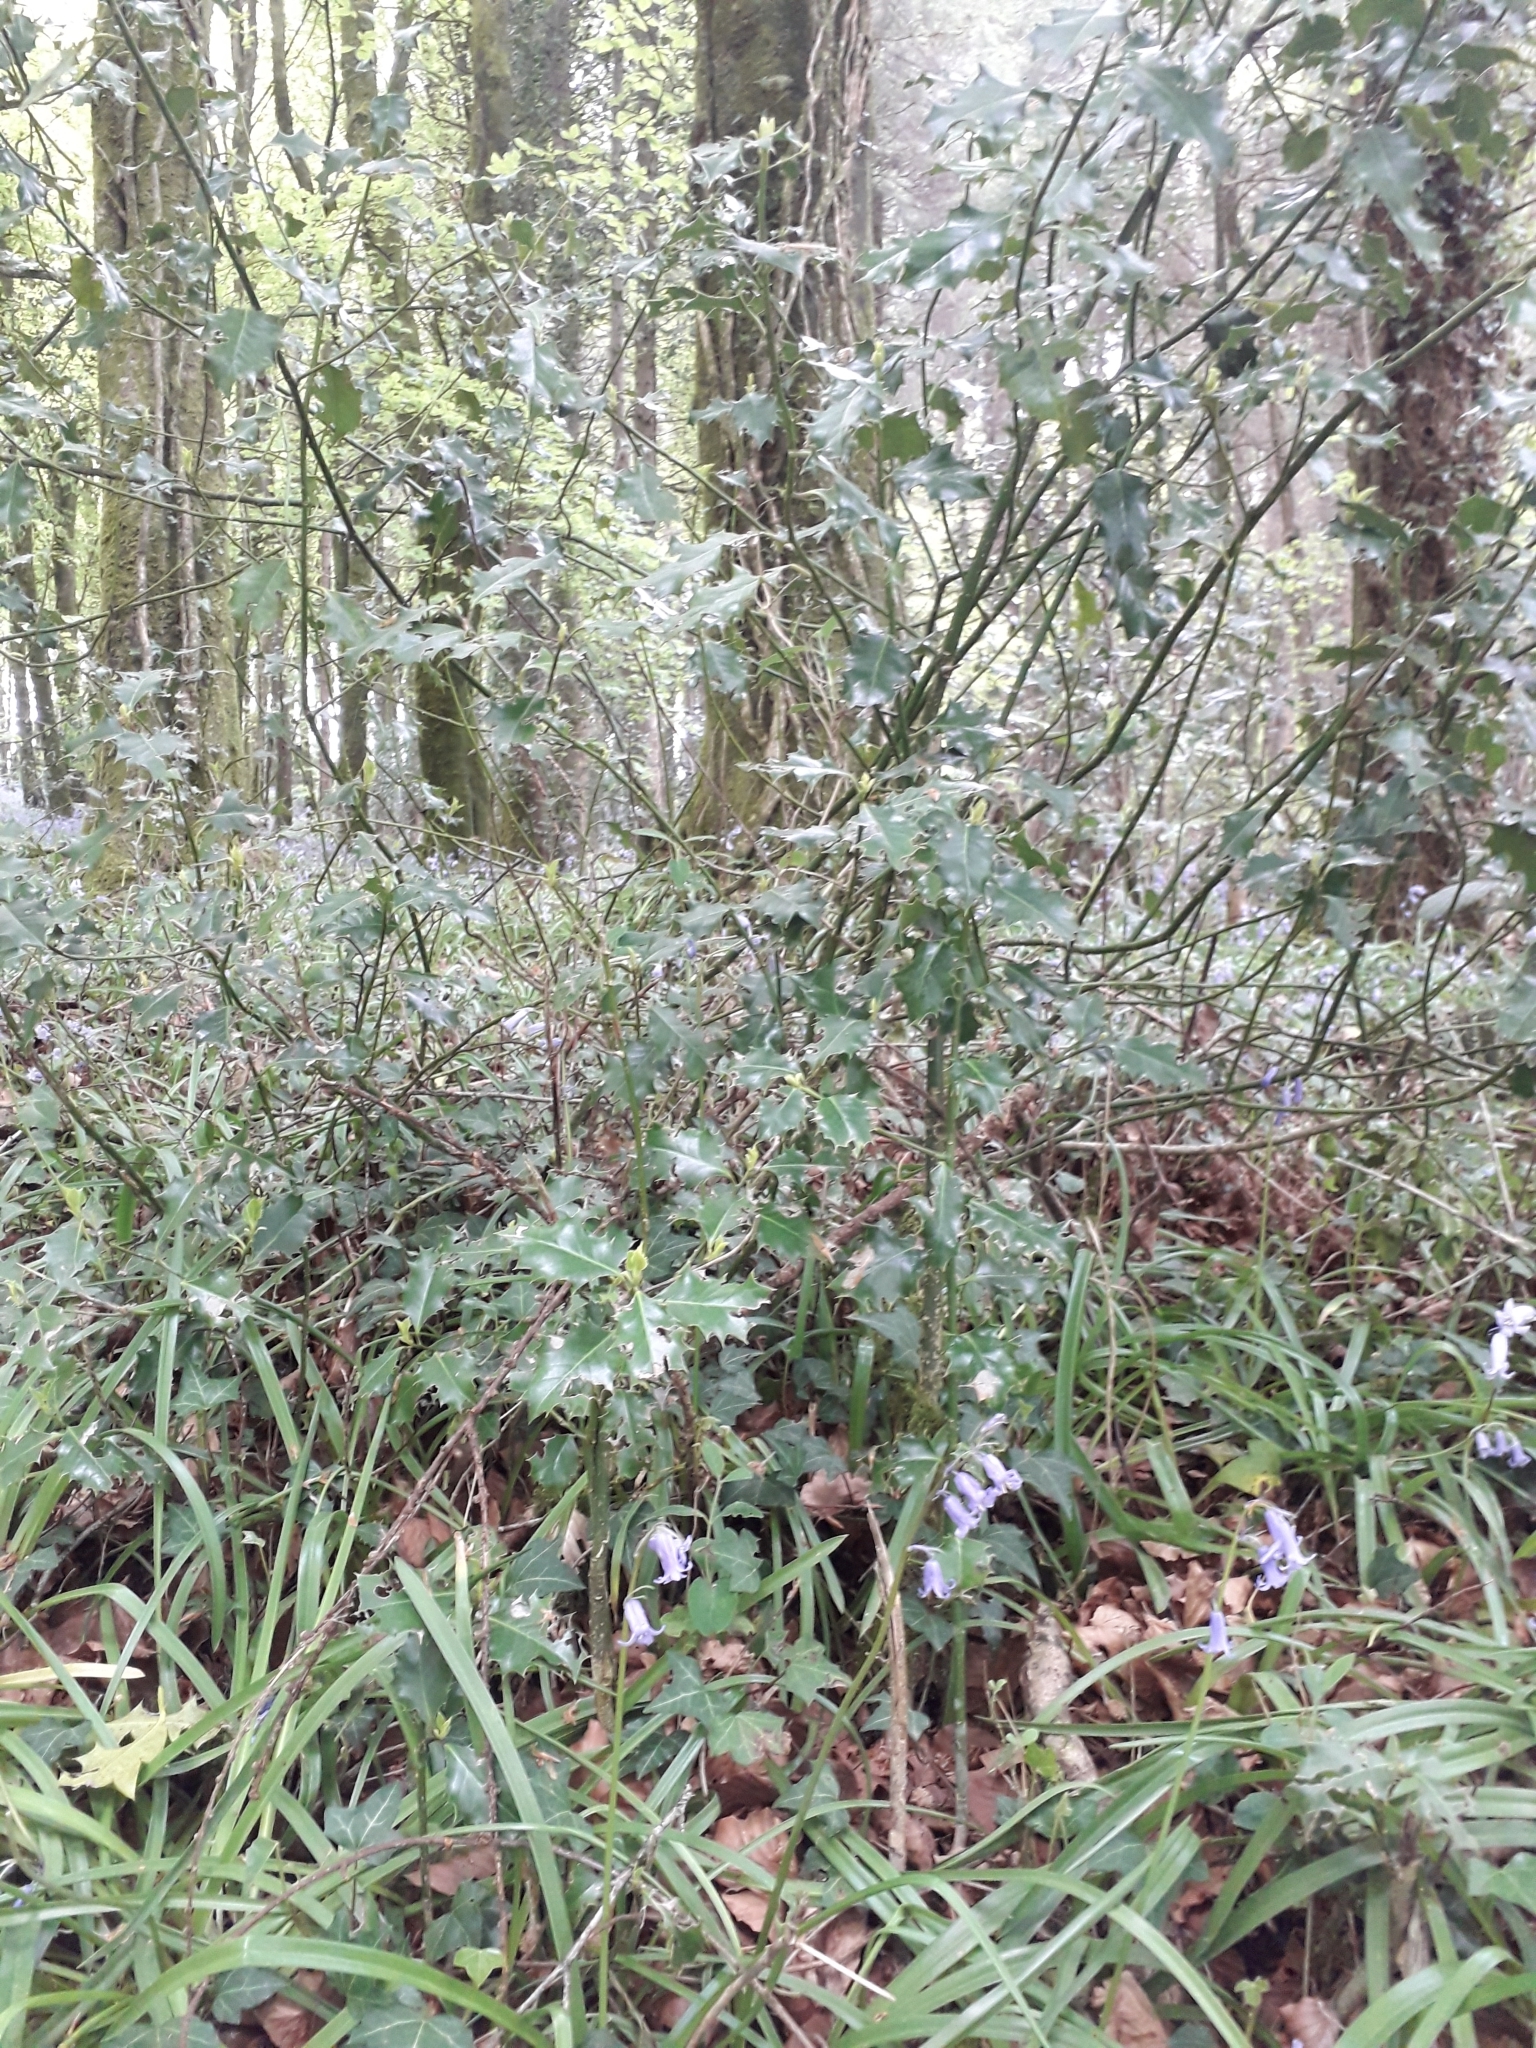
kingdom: Plantae
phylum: Tracheophyta
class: Magnoliopsida
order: Aquifoliales
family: Aquifoliaceae
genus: Ilex
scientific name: Ilex aquifolium
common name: English holly
